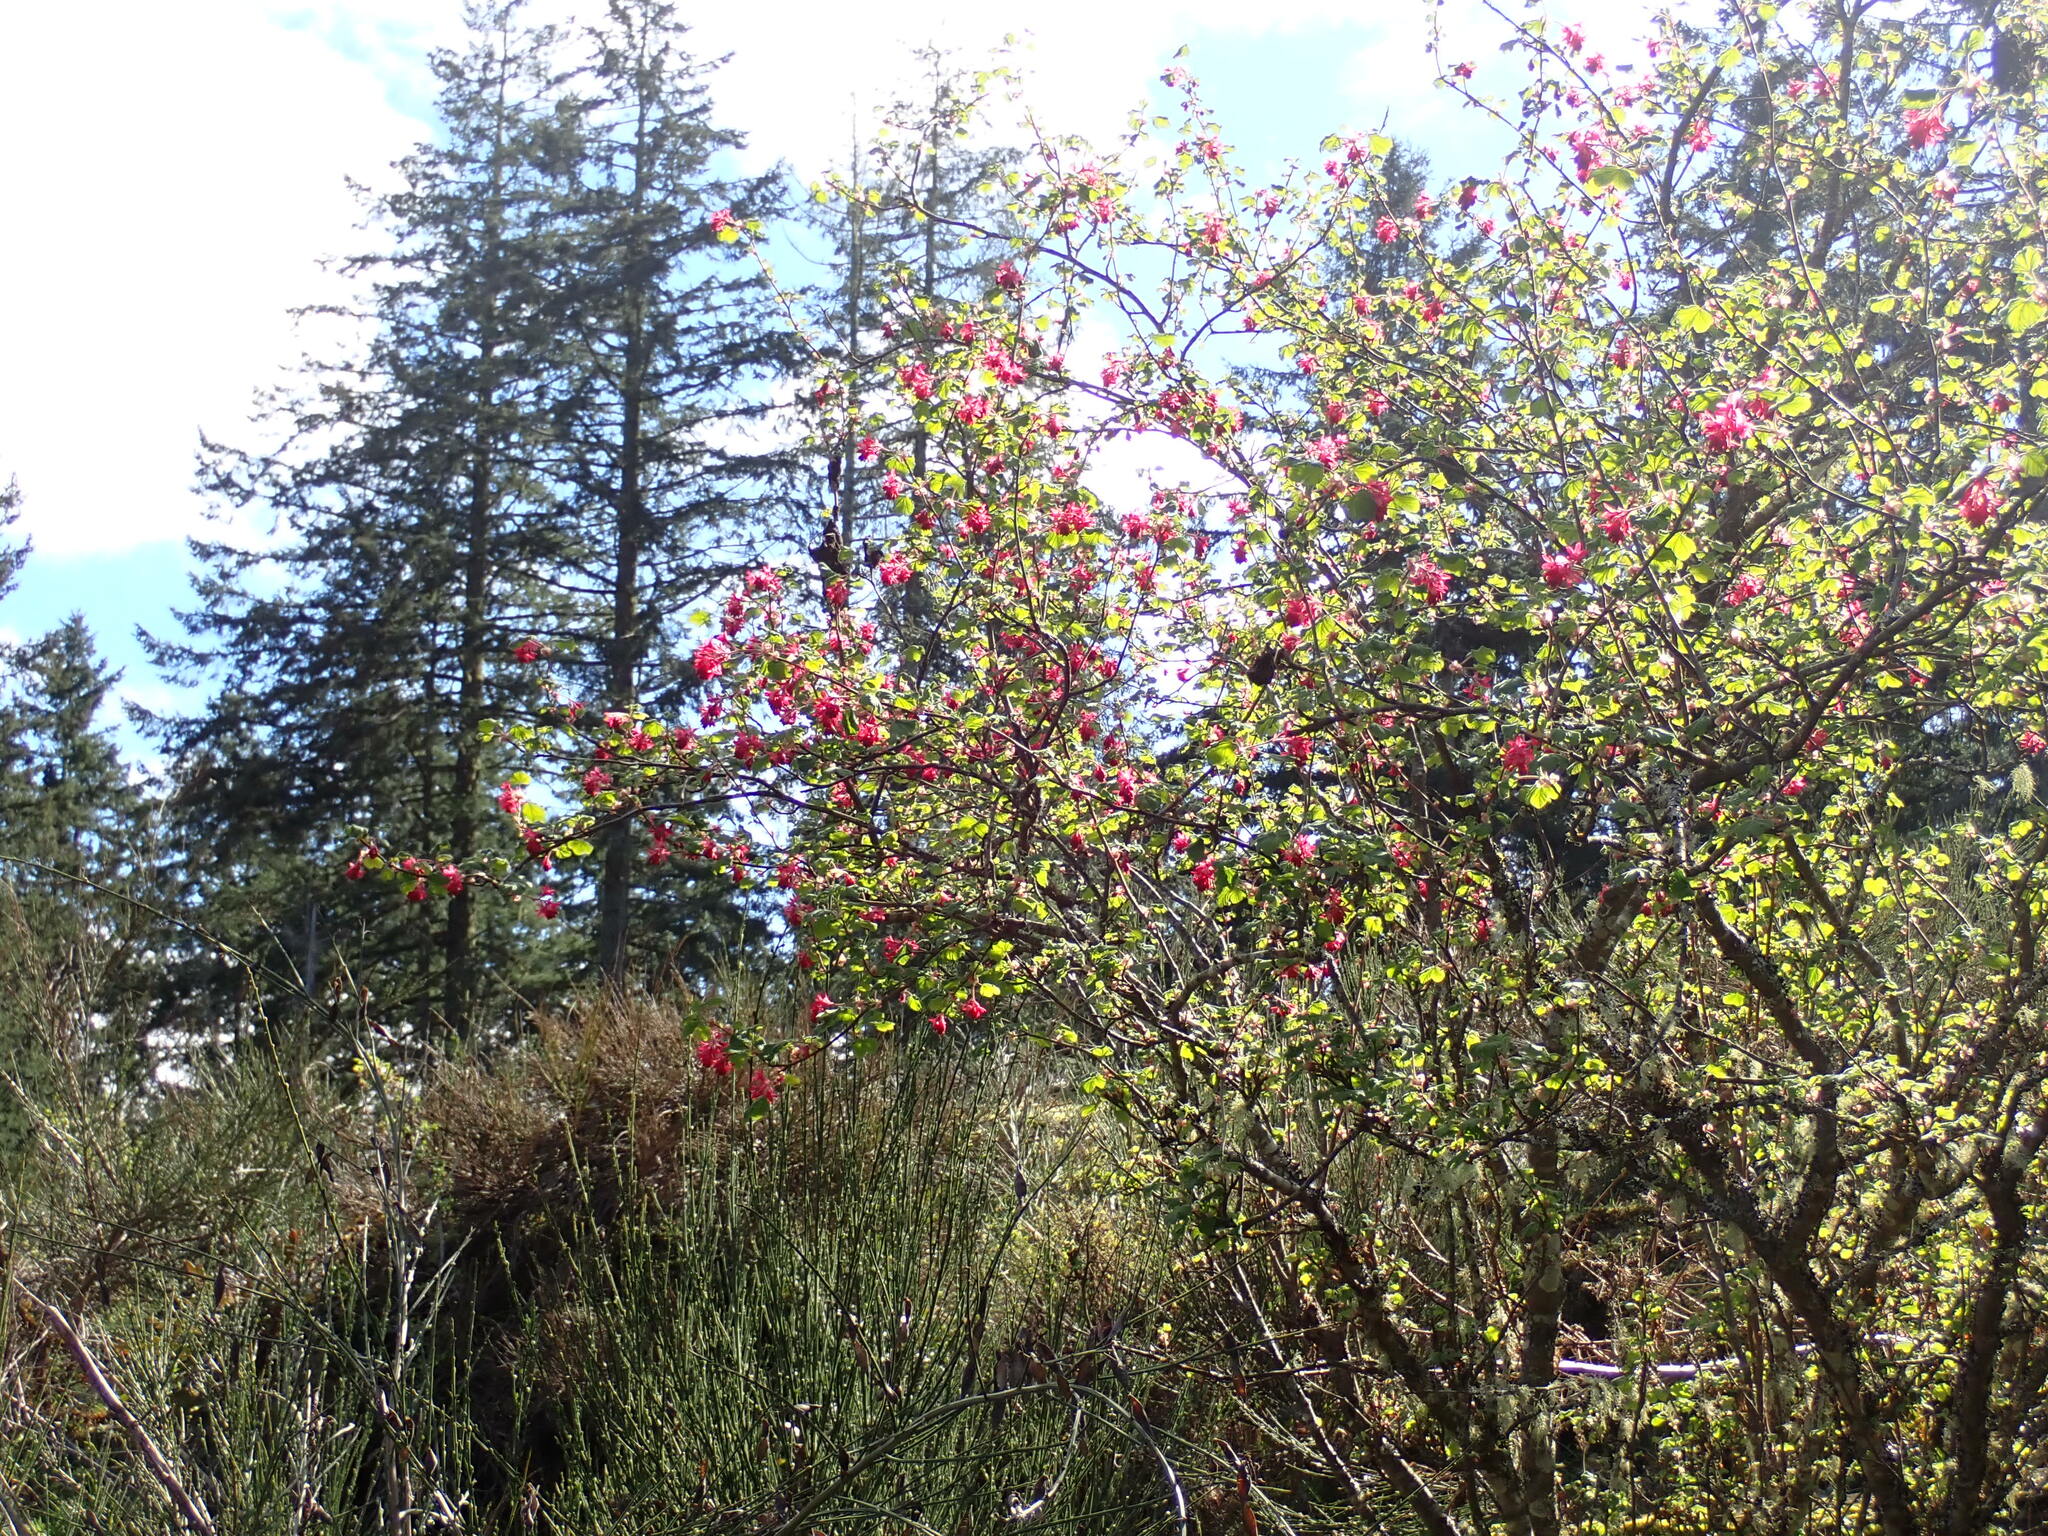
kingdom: Plantae
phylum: Tracheophyta
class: Magnoliopsida
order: Saxifragales
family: Grossulariaceae
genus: Ribes
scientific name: Ribes sanguineum
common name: Flowering currant
